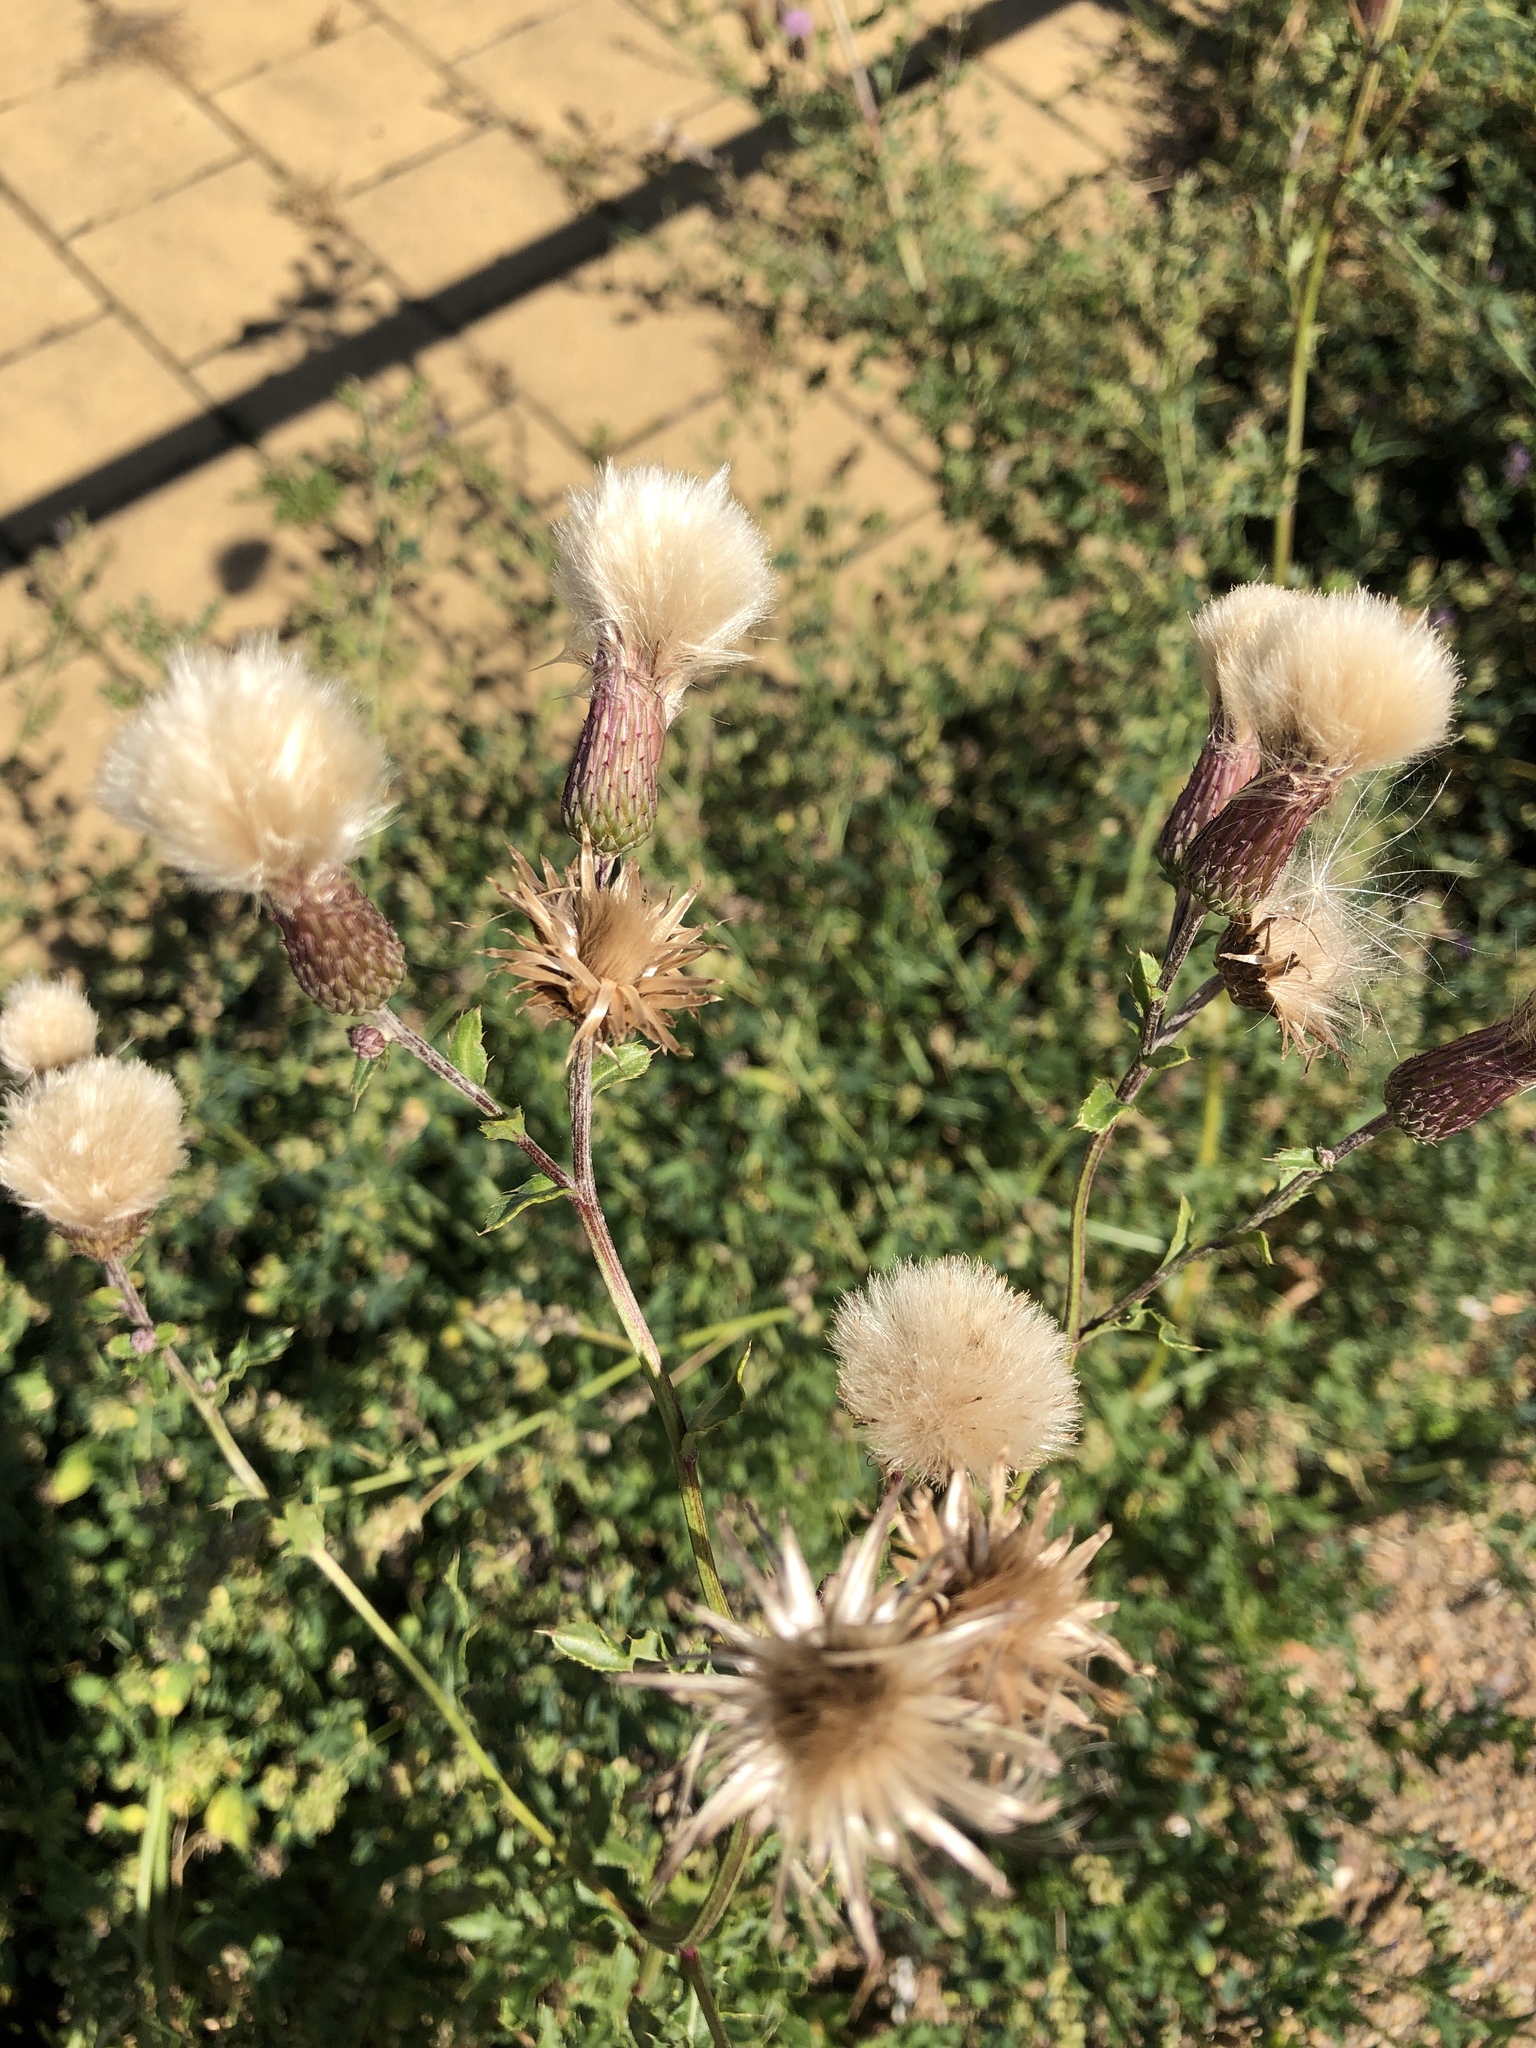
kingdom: Plantae
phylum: Tracheophyta
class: Magnoliopsida
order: Asterales
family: Asteraceae
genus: Cirsium
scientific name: Cirsium arvense
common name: Creeping thistle
